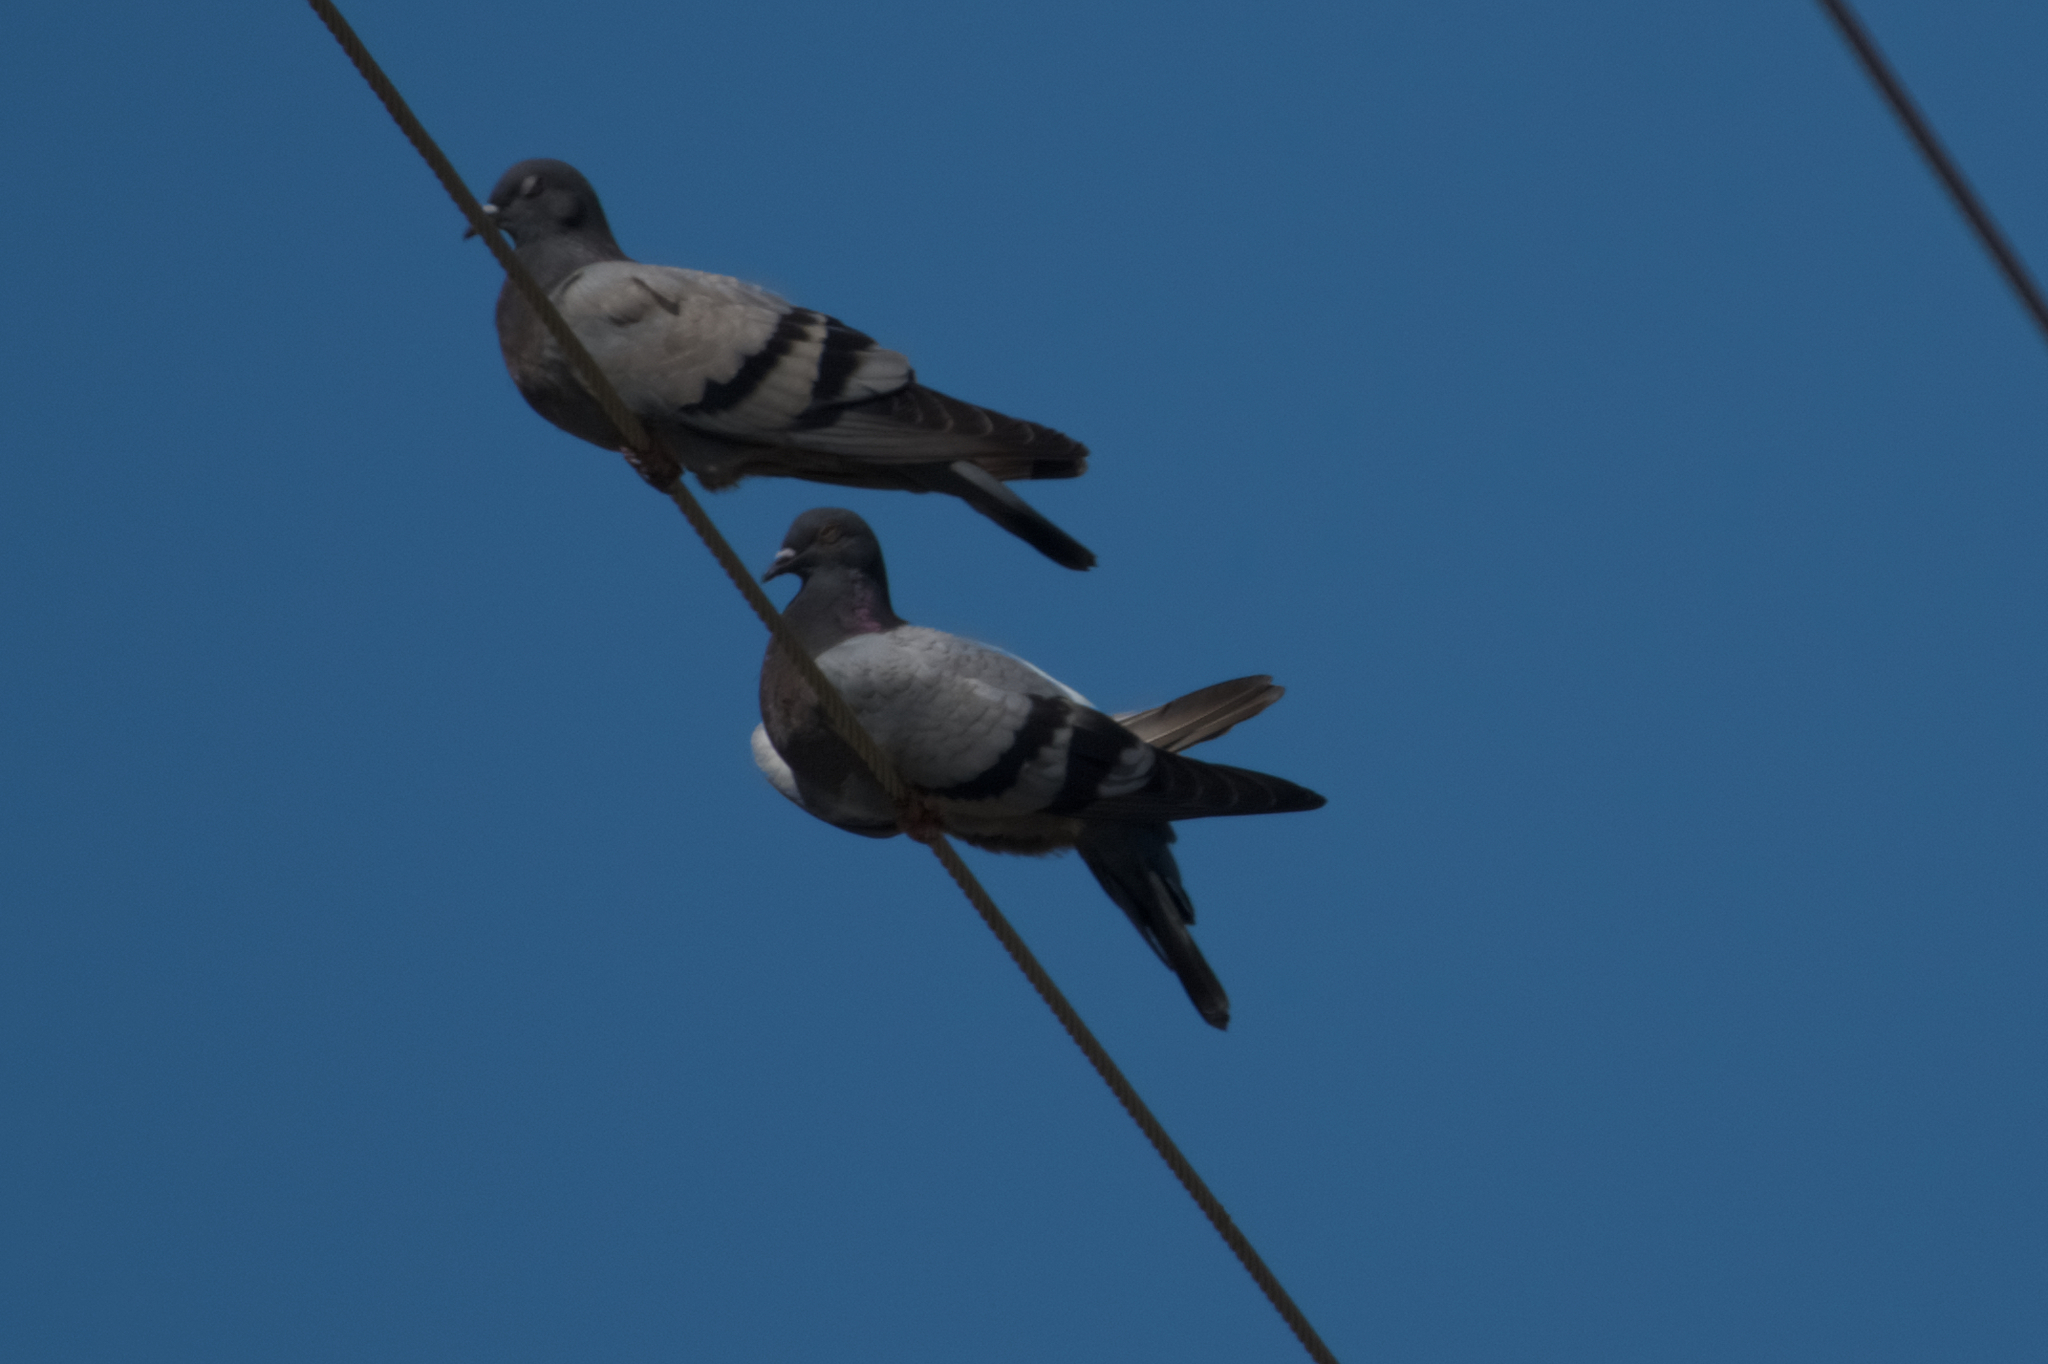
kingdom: Animalia
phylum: Chordata
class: Aves
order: Columbiformes
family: Columbidae
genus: Columba
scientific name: Columba livia
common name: Rock pigeon
